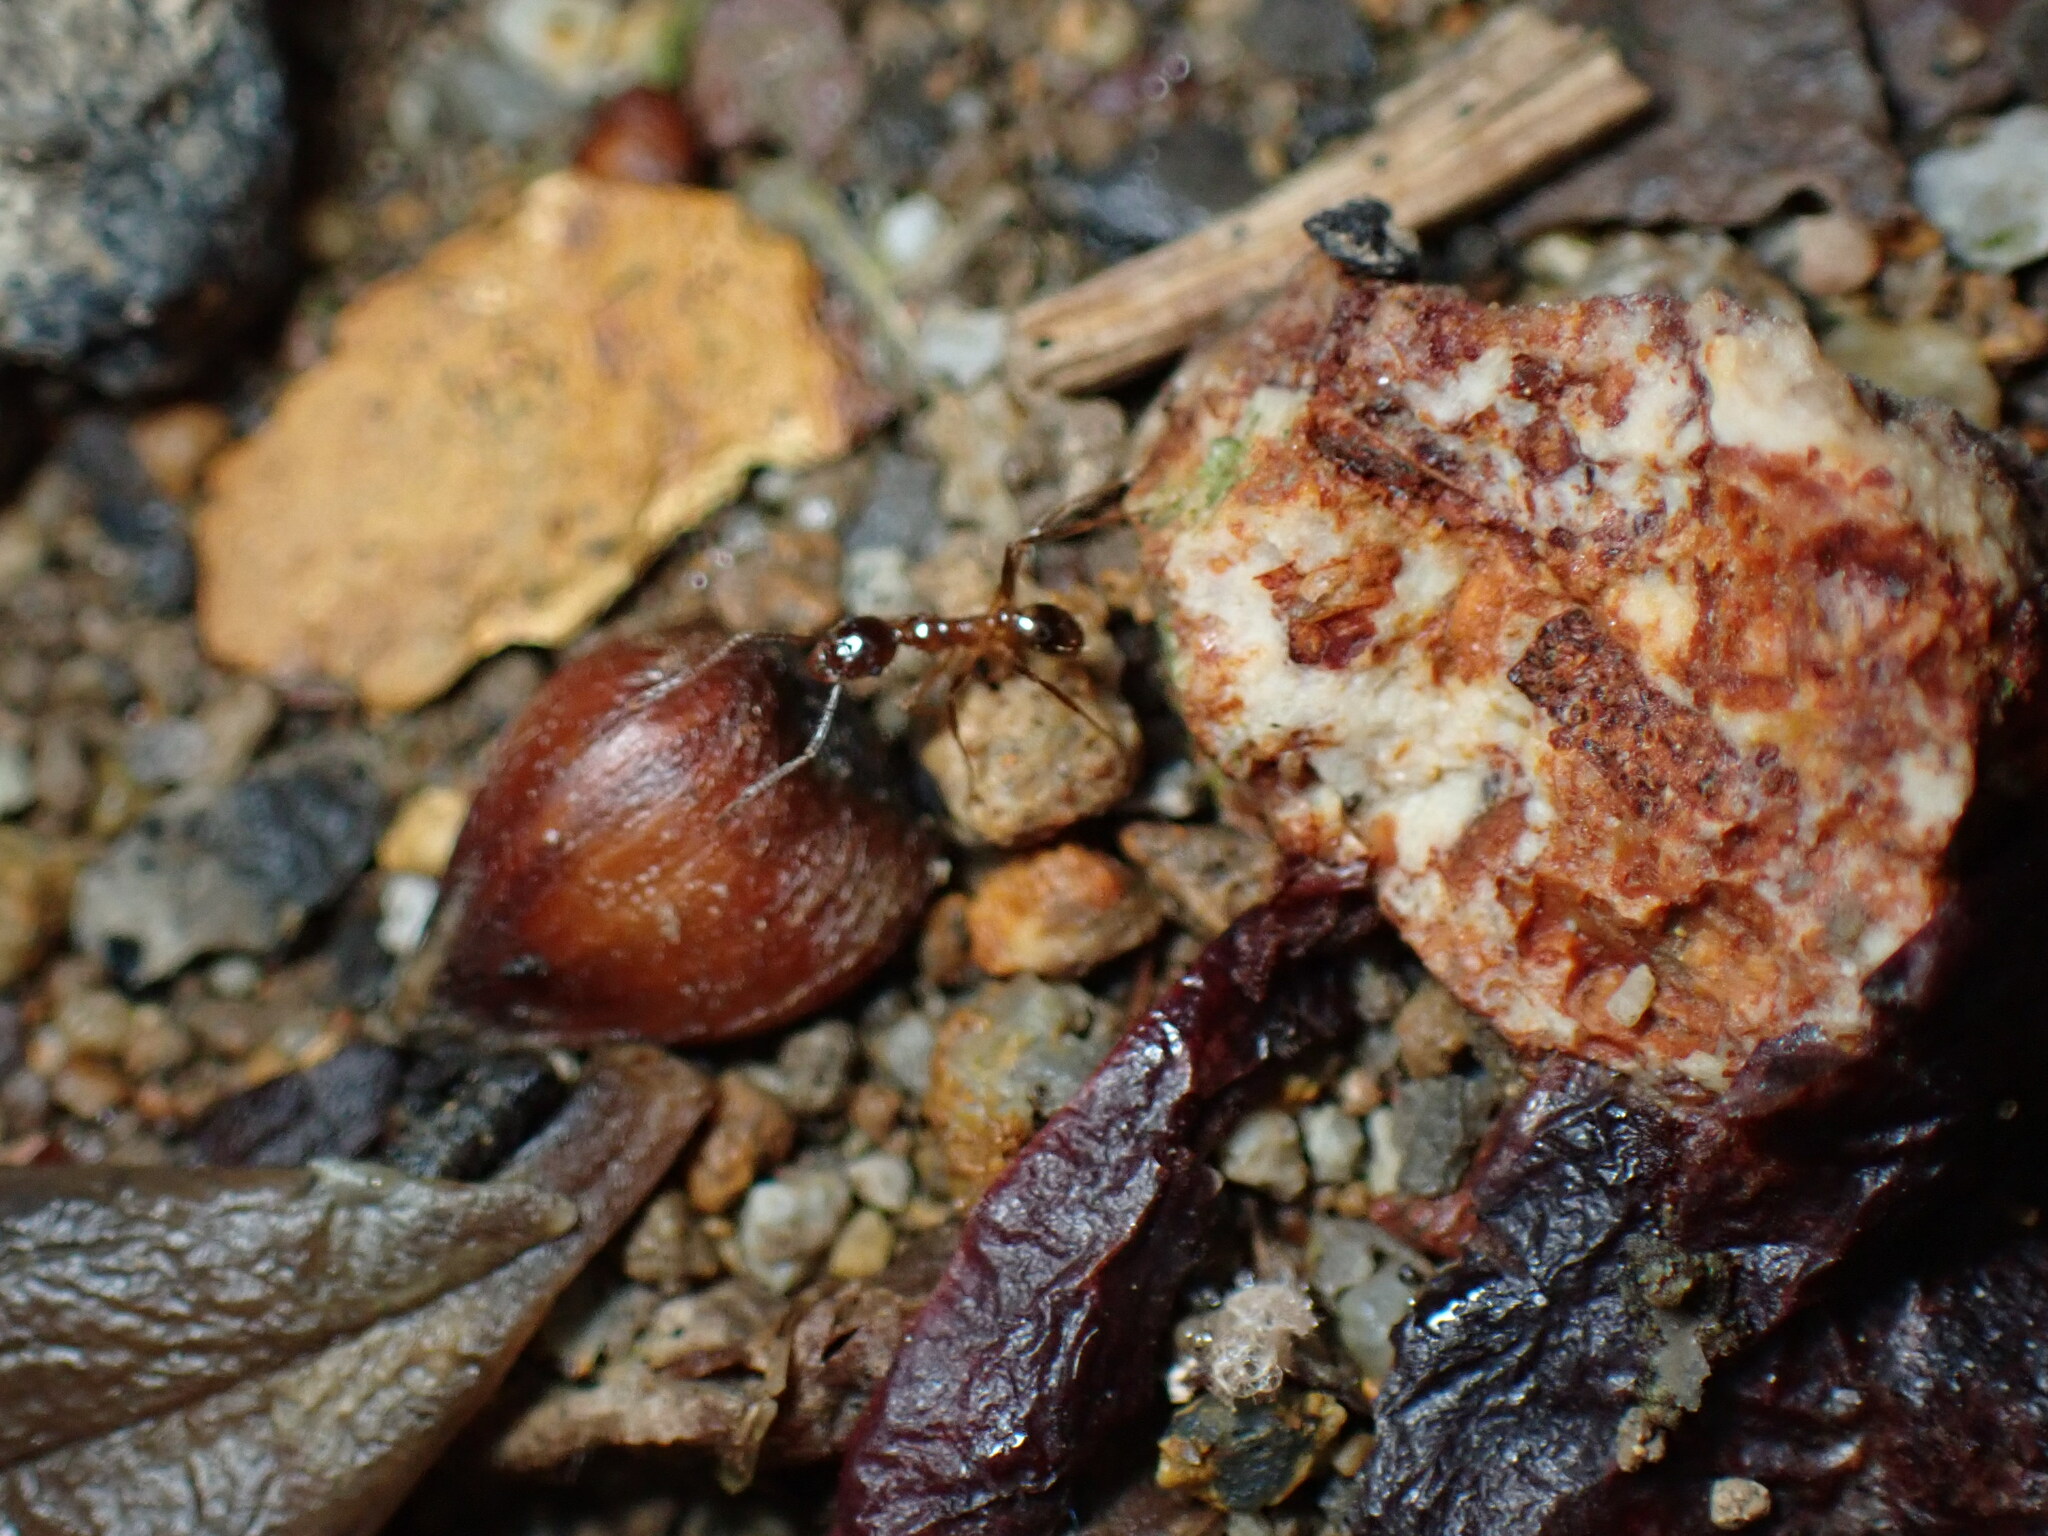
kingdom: Animalia
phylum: Arthropoda
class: Insecta
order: Hymenoptera
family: Formicidae
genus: Pheidole
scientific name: Pheidole noda
